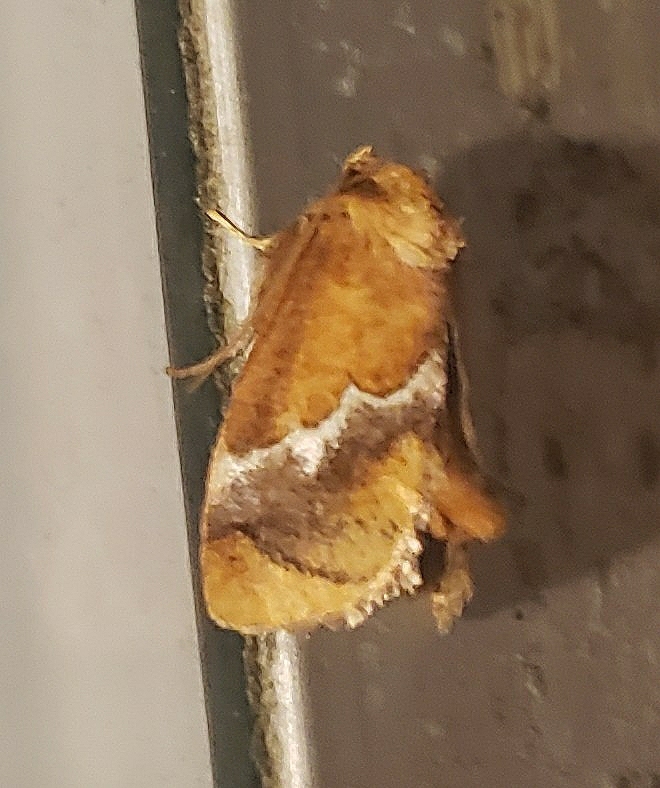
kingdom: Animalia
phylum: Arthropoda
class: Insecta
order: Lepidoptera
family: Limacodidae
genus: Lithacodes
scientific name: Lithacodes fasciola
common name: Yellow-shouldered slug moth
